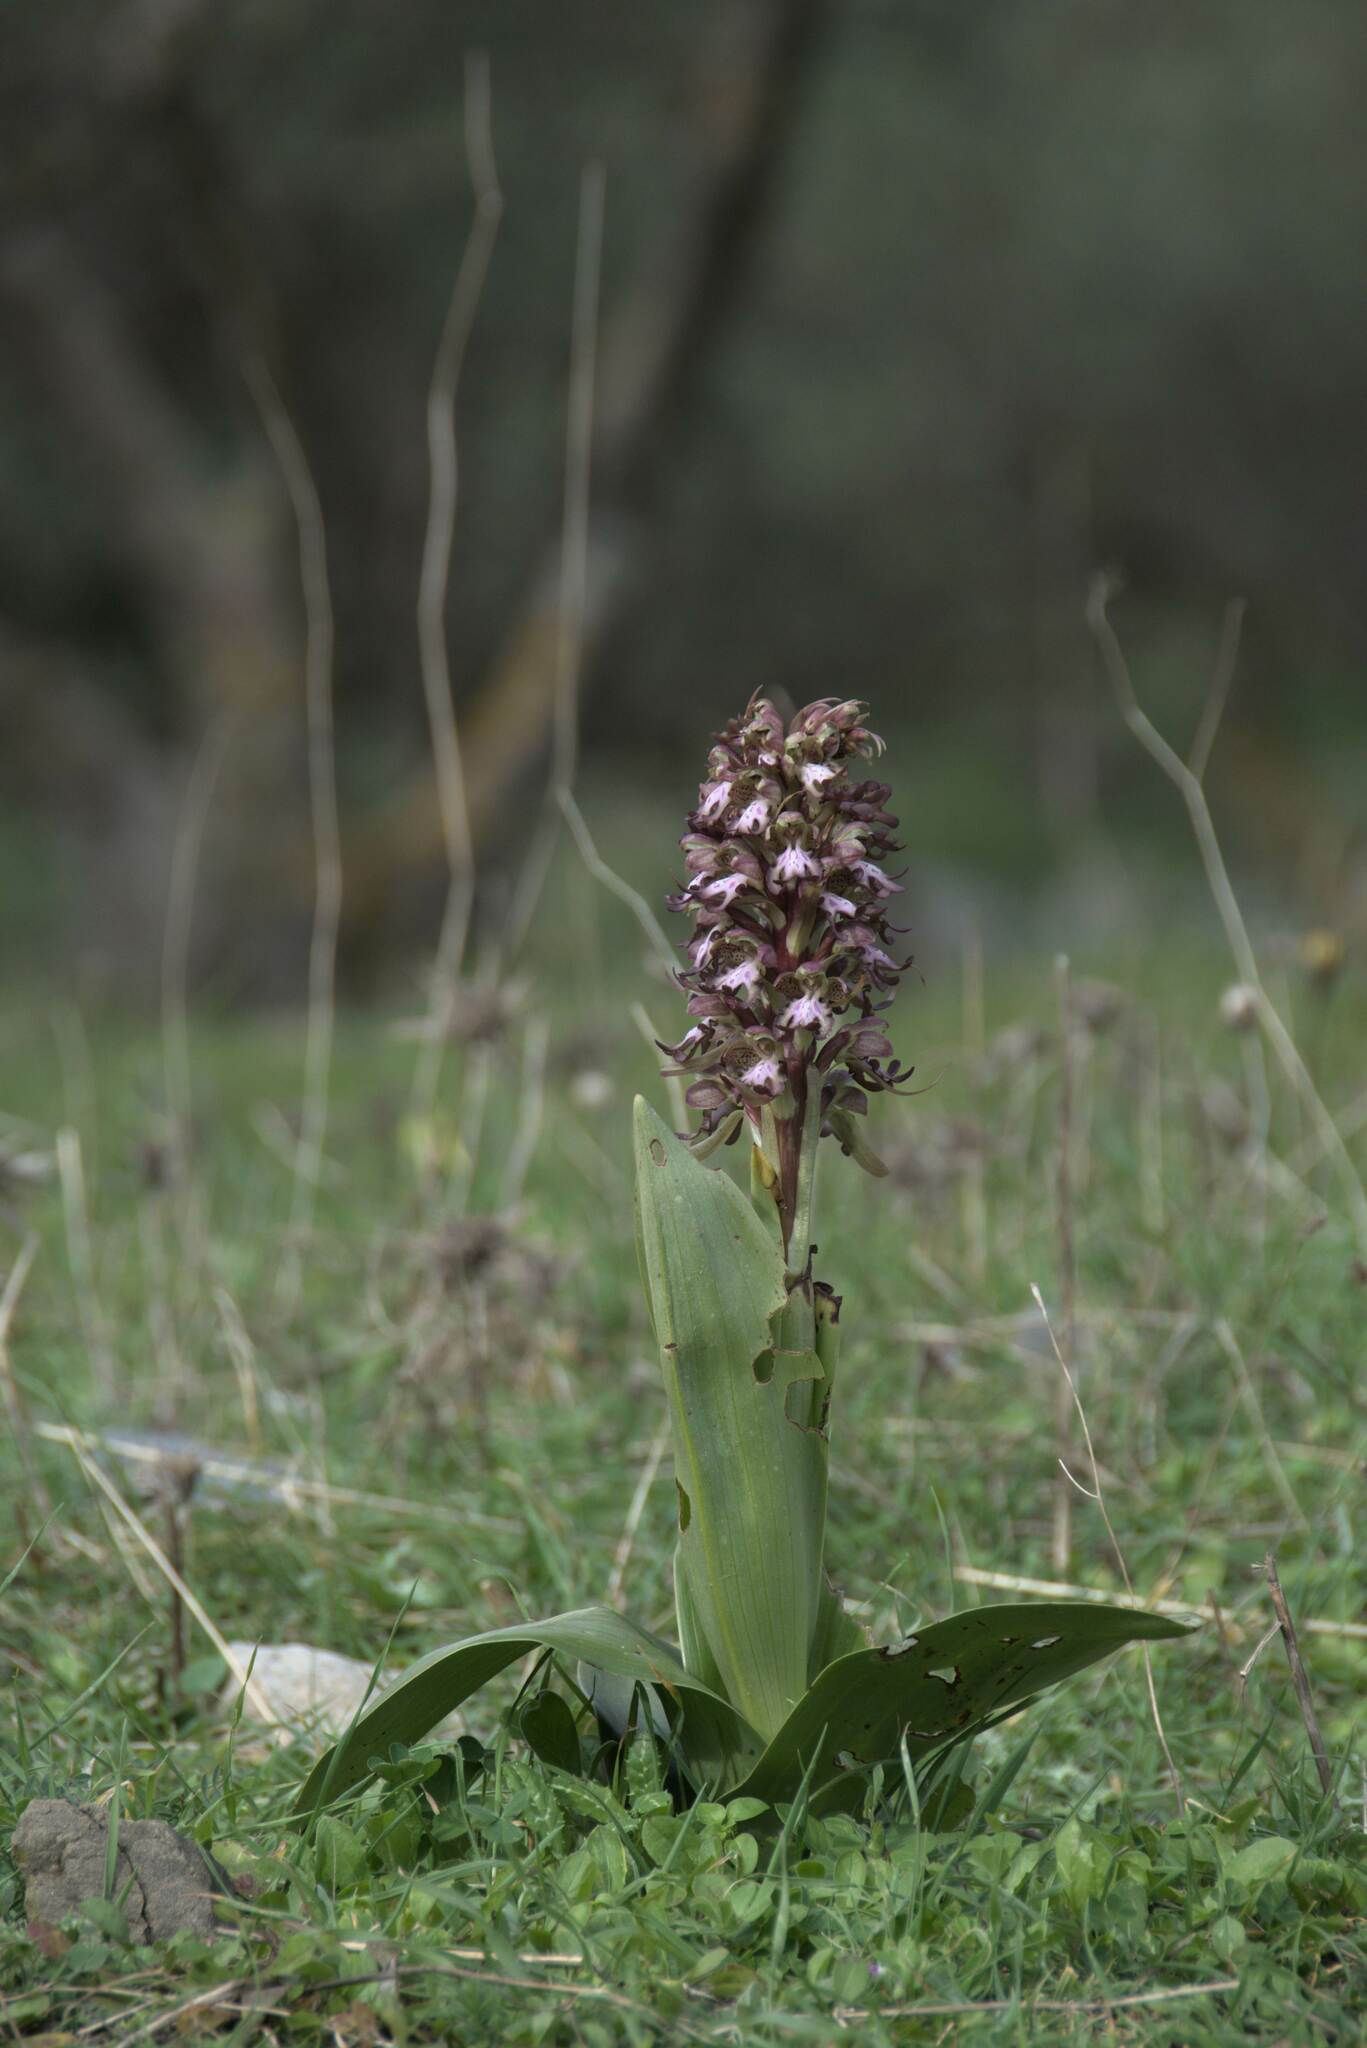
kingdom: Plantae
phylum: Tracheophyta
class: Liliopsida
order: Asparagales
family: Orchidaceae
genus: Himantoglossum
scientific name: Himantoglossum robertianum
